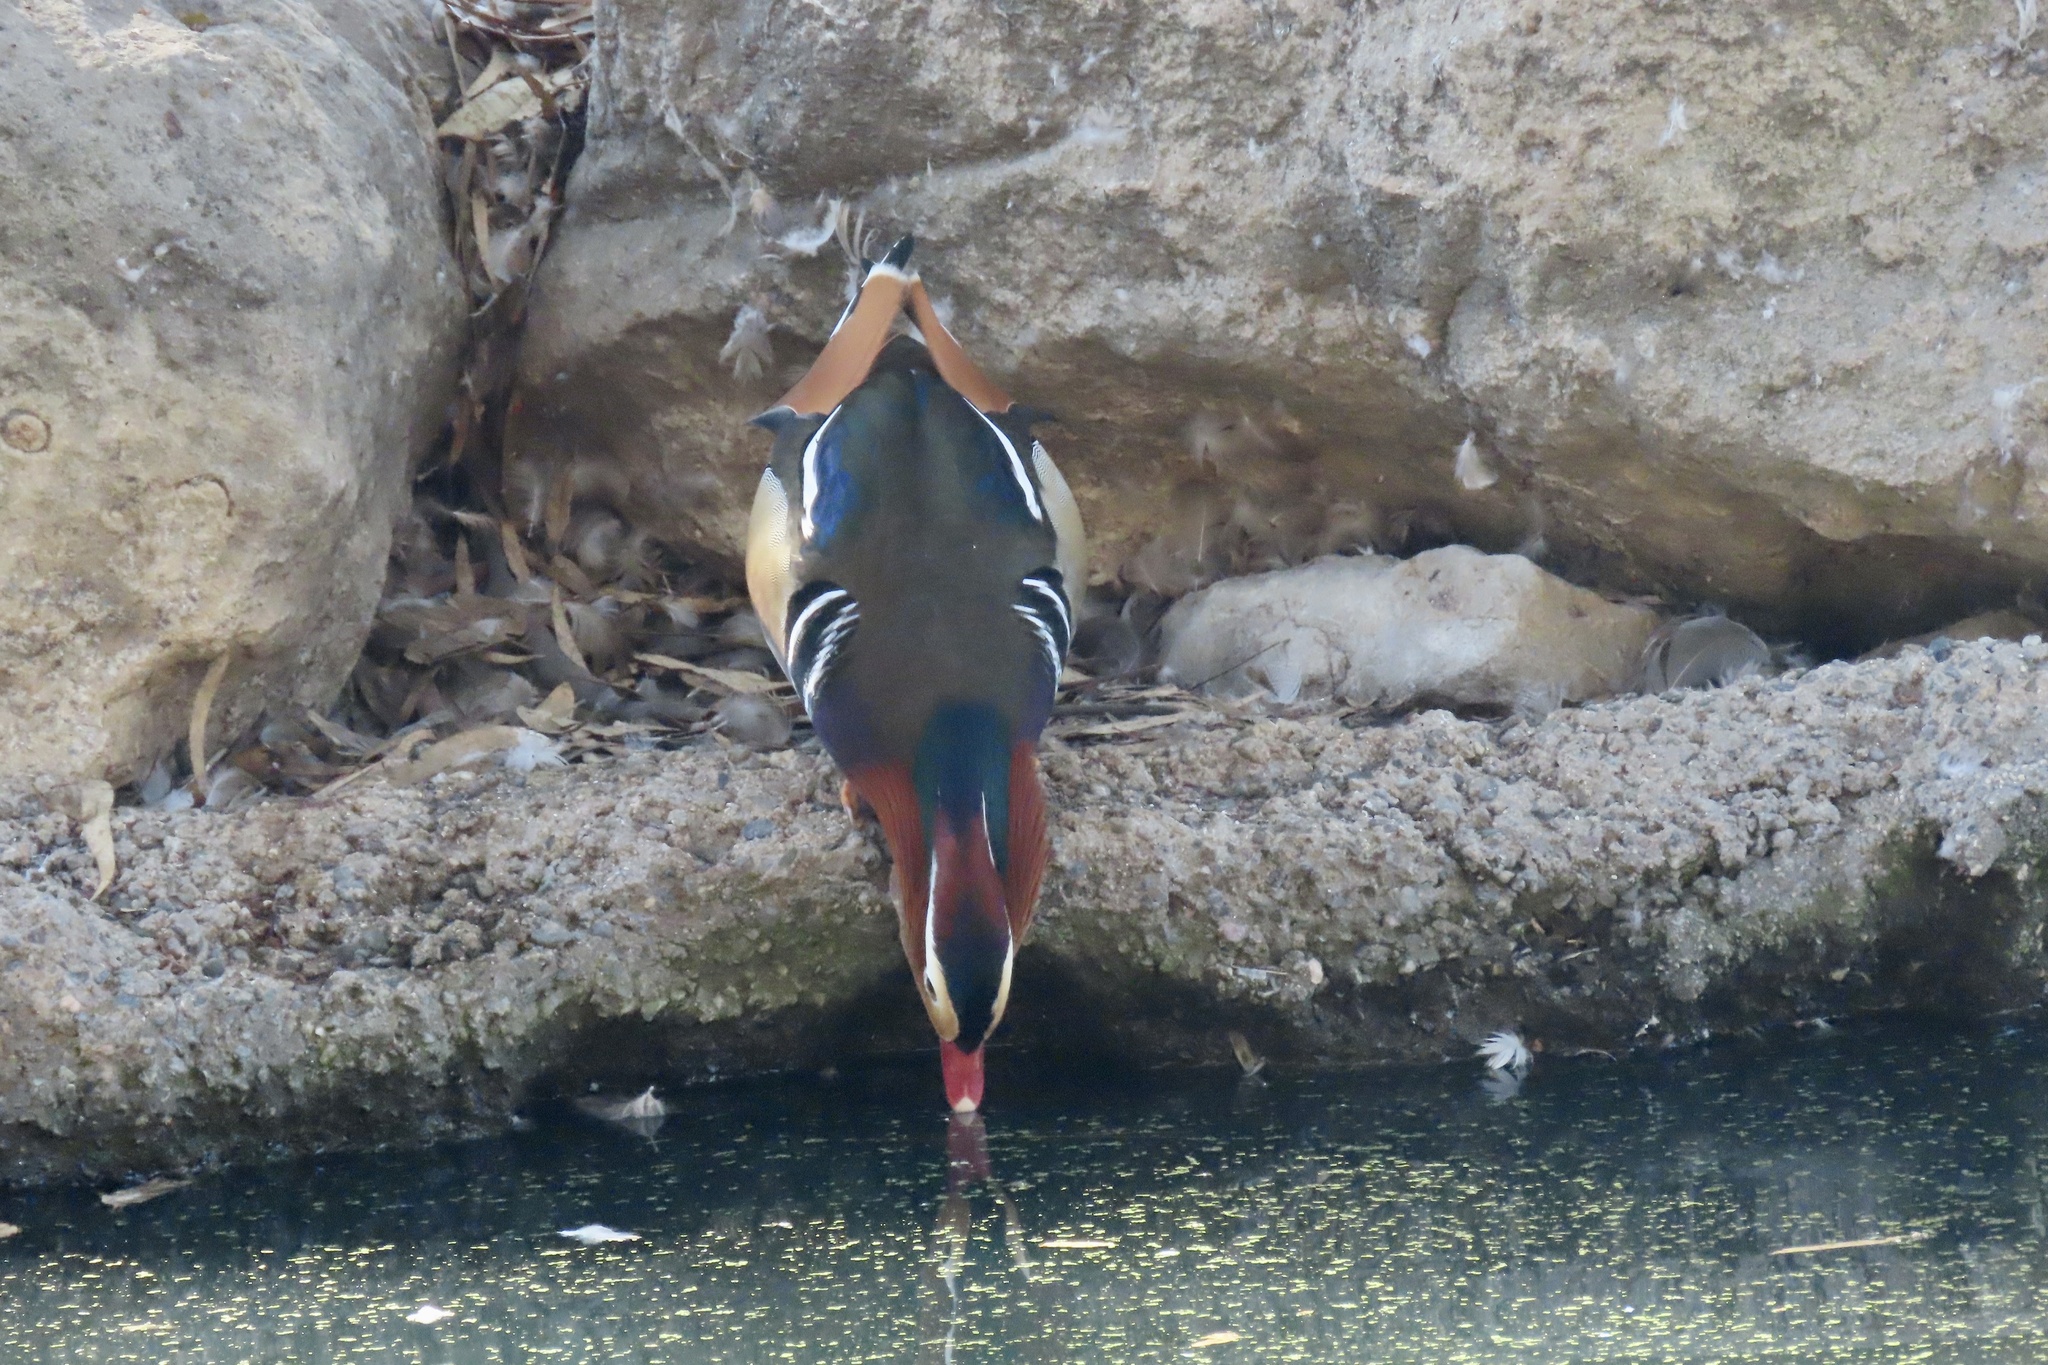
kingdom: Animalia
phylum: Chordata
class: Aves
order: Anseriformes
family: Anatidae
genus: Aix
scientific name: Aix galericulata
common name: Mandarin duck
